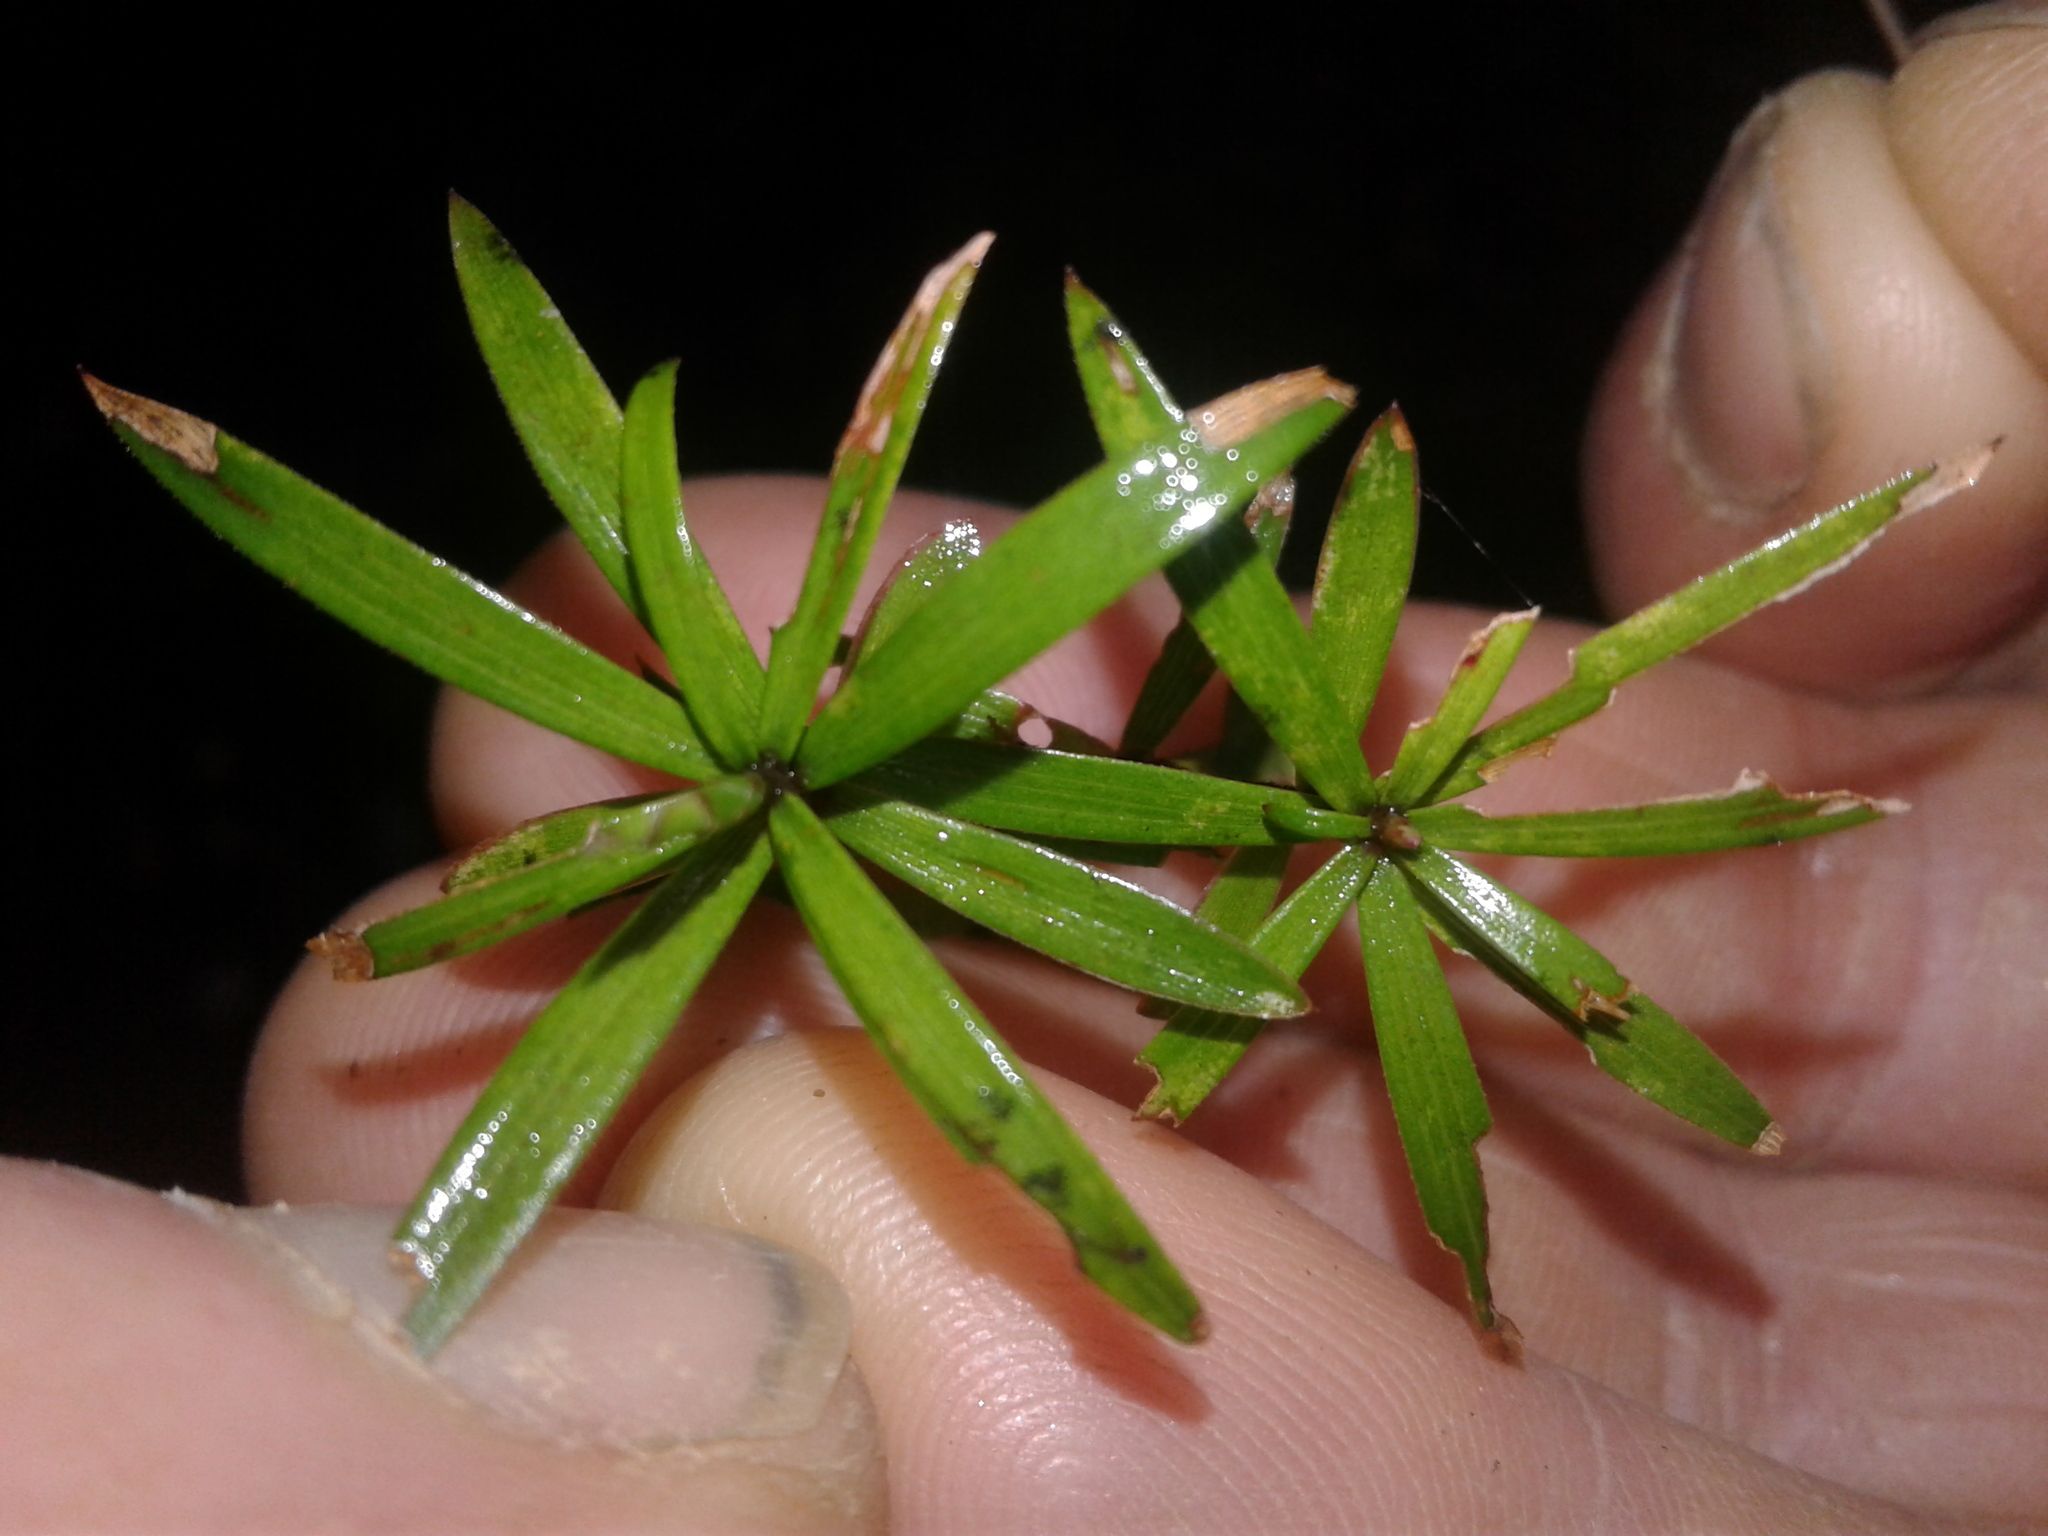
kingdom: Plantae
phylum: Tracheophyta
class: Magnoliopsida
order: Ericales
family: Ericaceae
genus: Leucopogon
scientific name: Leucopogon fasciculatus
